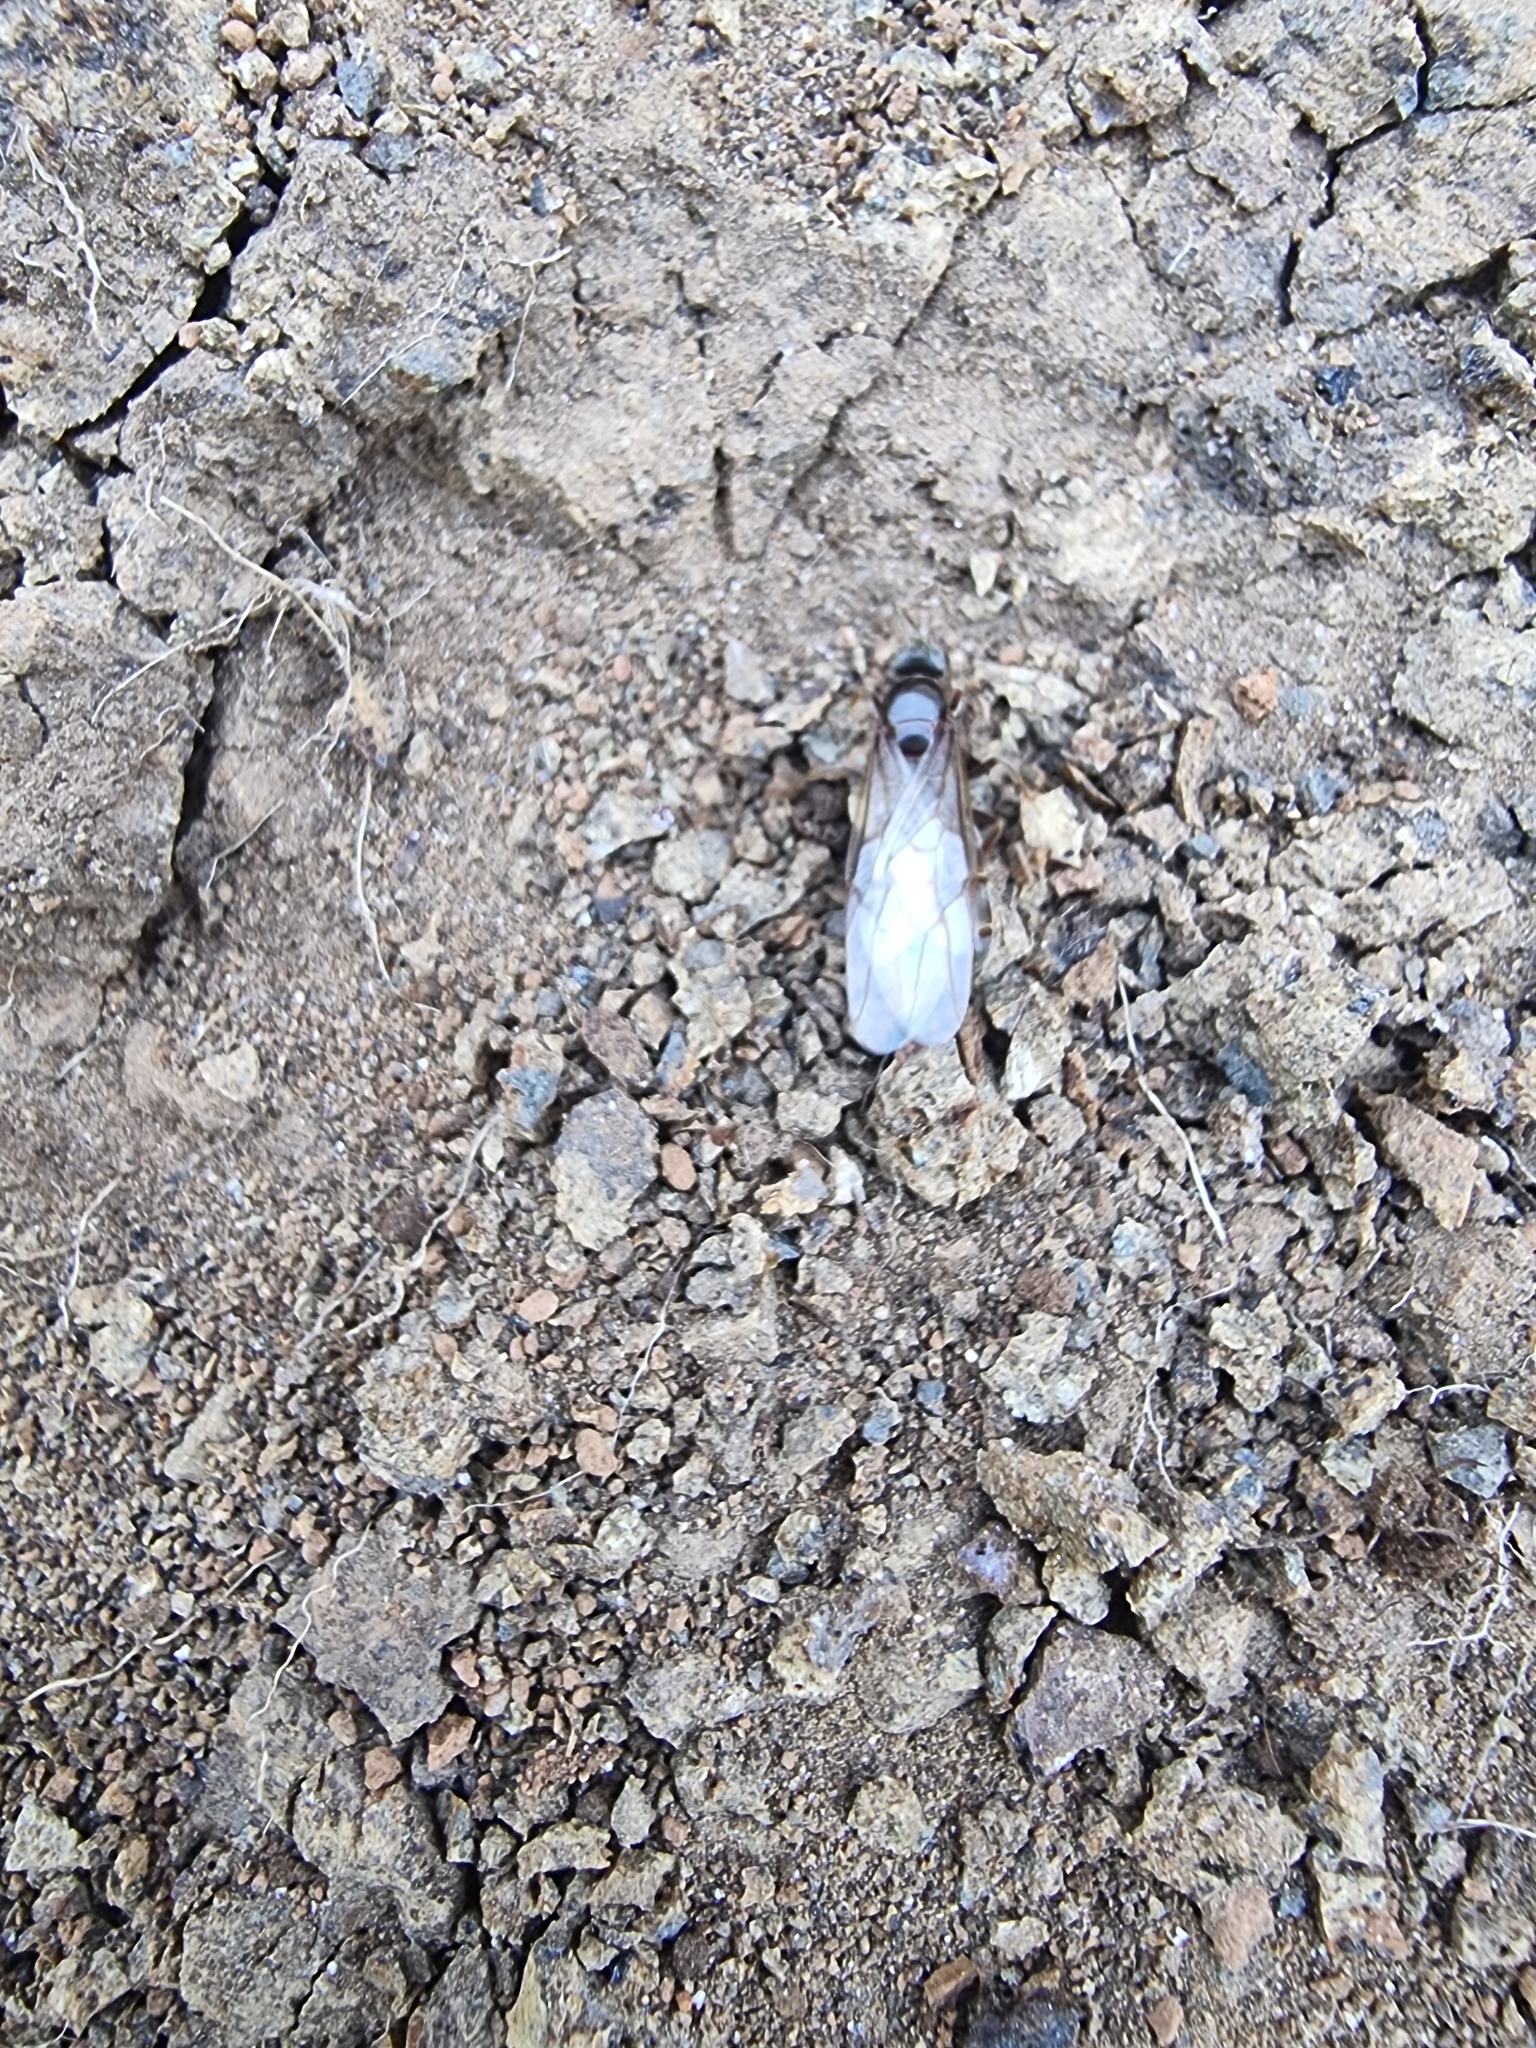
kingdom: Animalia
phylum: Arthropoda
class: Insecta
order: Hymenoptera
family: Formicidae
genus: Lasius
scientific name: Lasius grandis
